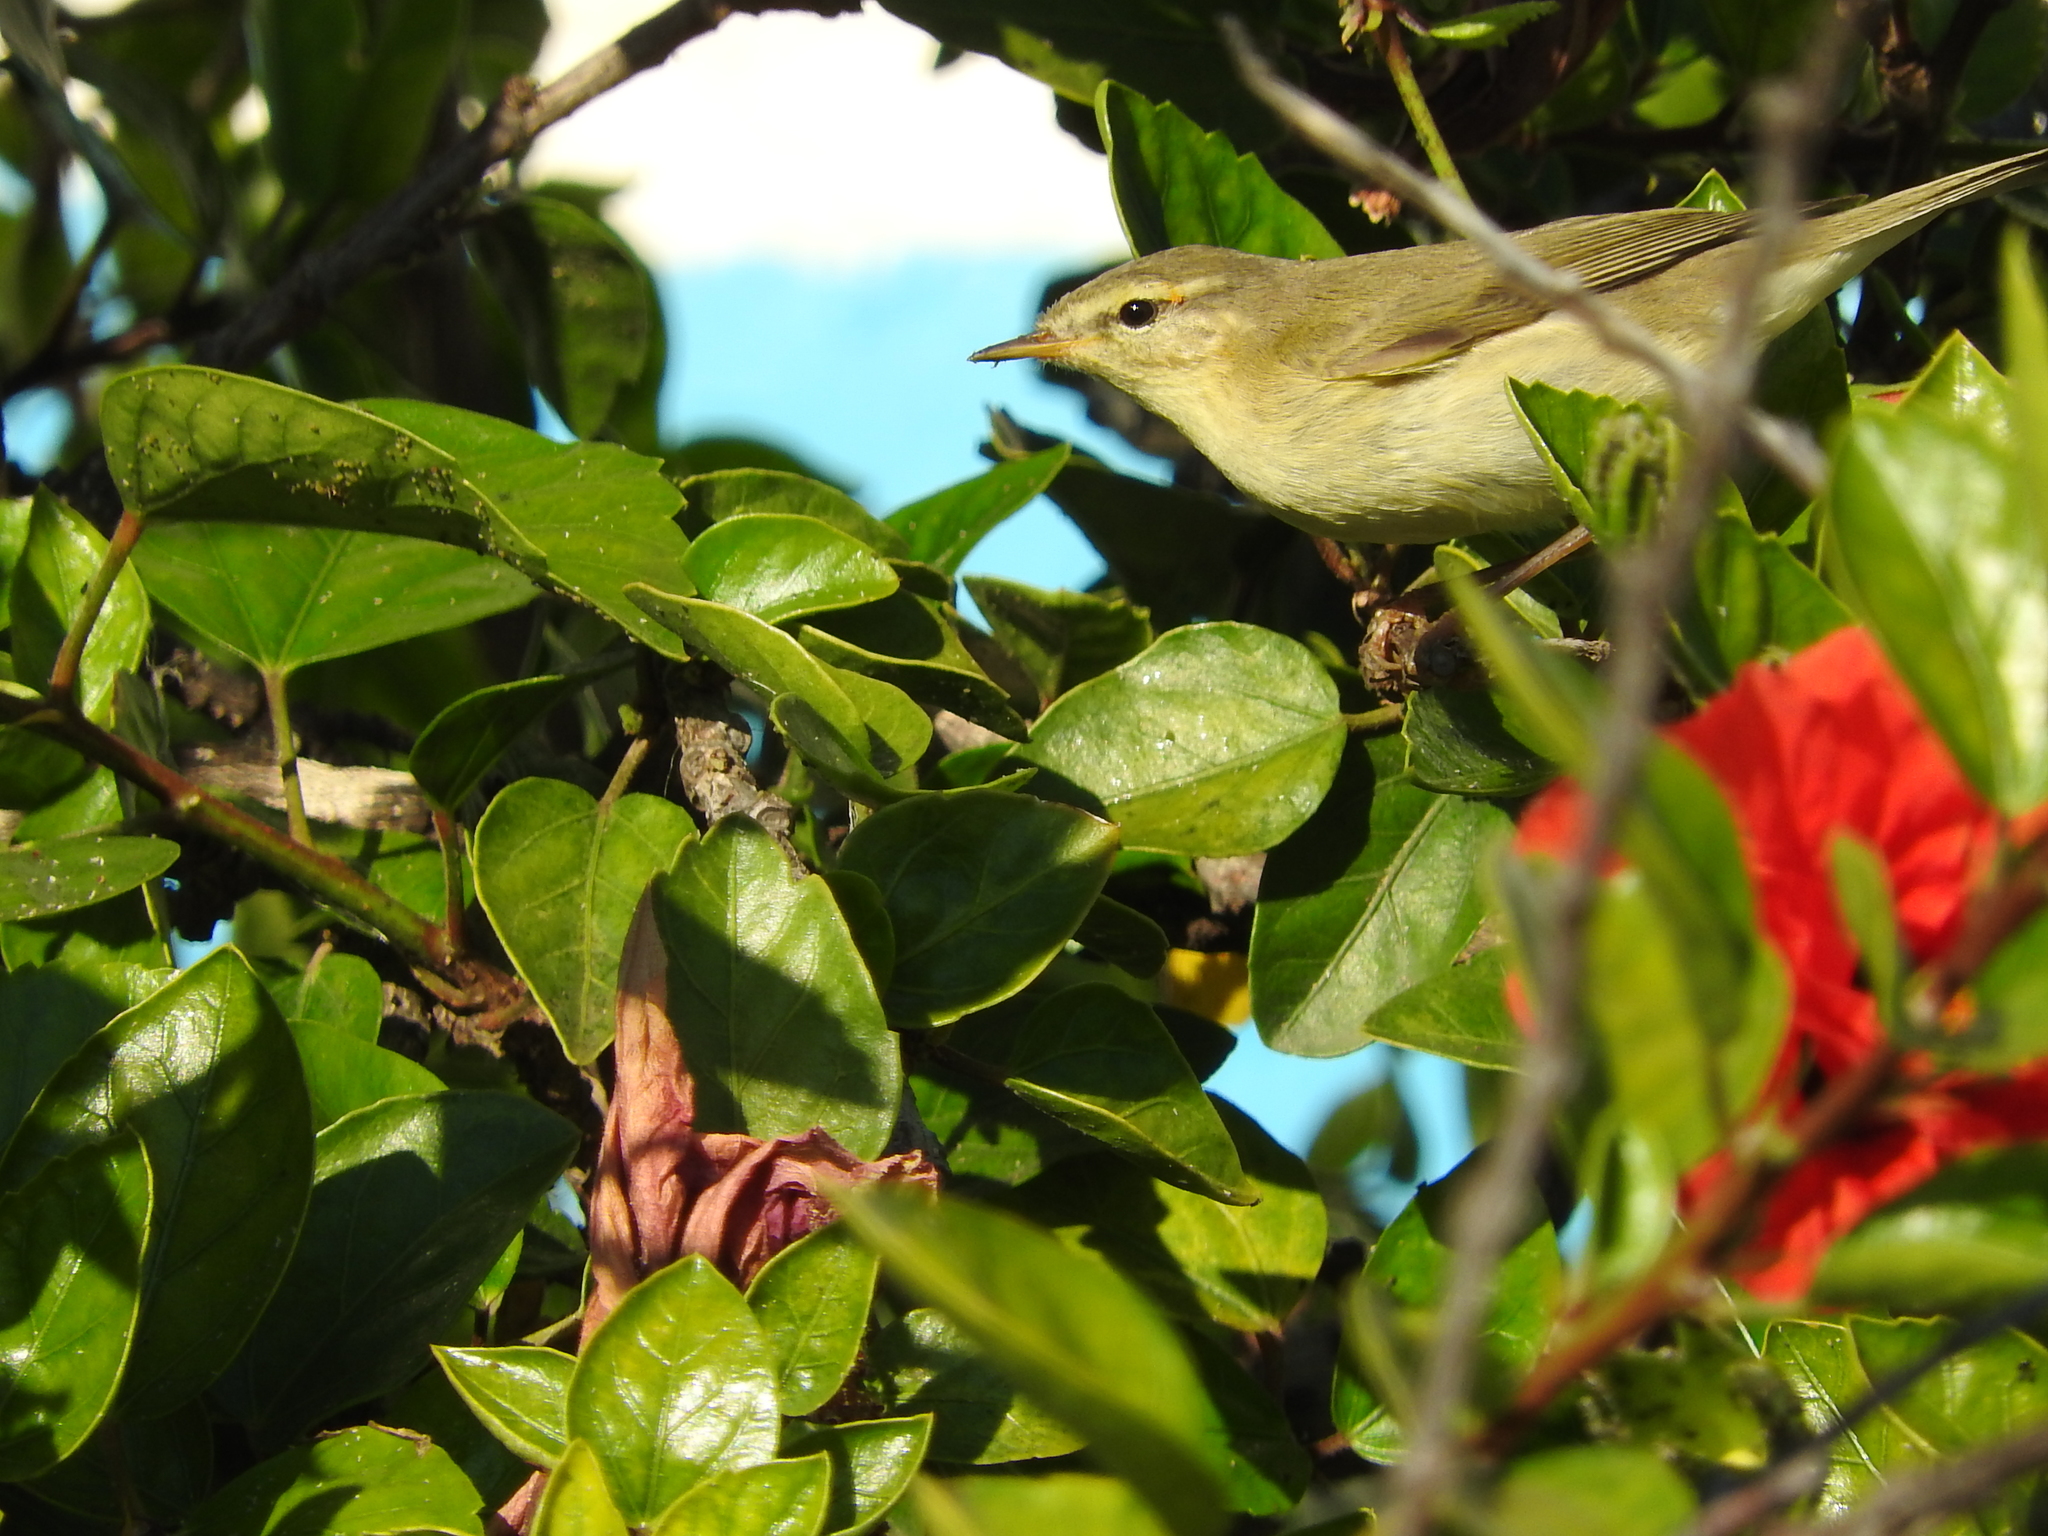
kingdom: Animalia
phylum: Chordata
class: Aves
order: Passeriformes
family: Phylloscopidae
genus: Phylloscopus
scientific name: Phylloscopus trochilus
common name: Willow warbler
